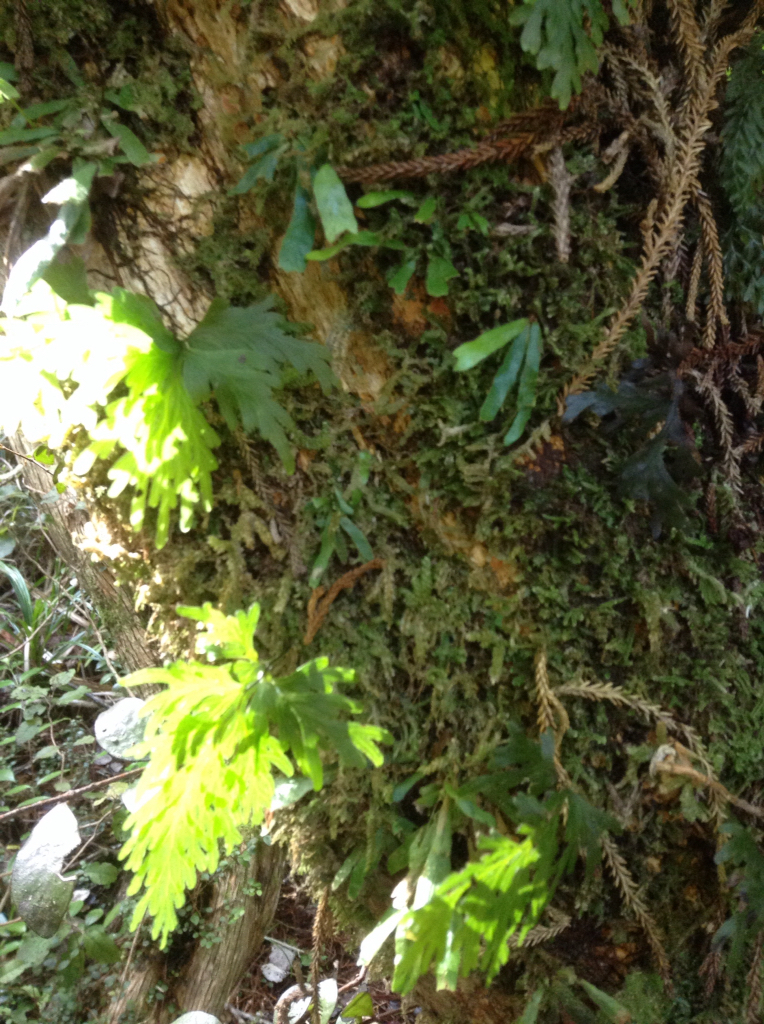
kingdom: Plantae
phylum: Tracheophyta
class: Polypodiopsida
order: Polypodiales
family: Polypodiaceae
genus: Notogrammitis
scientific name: Notogrammitis pseudociliata
